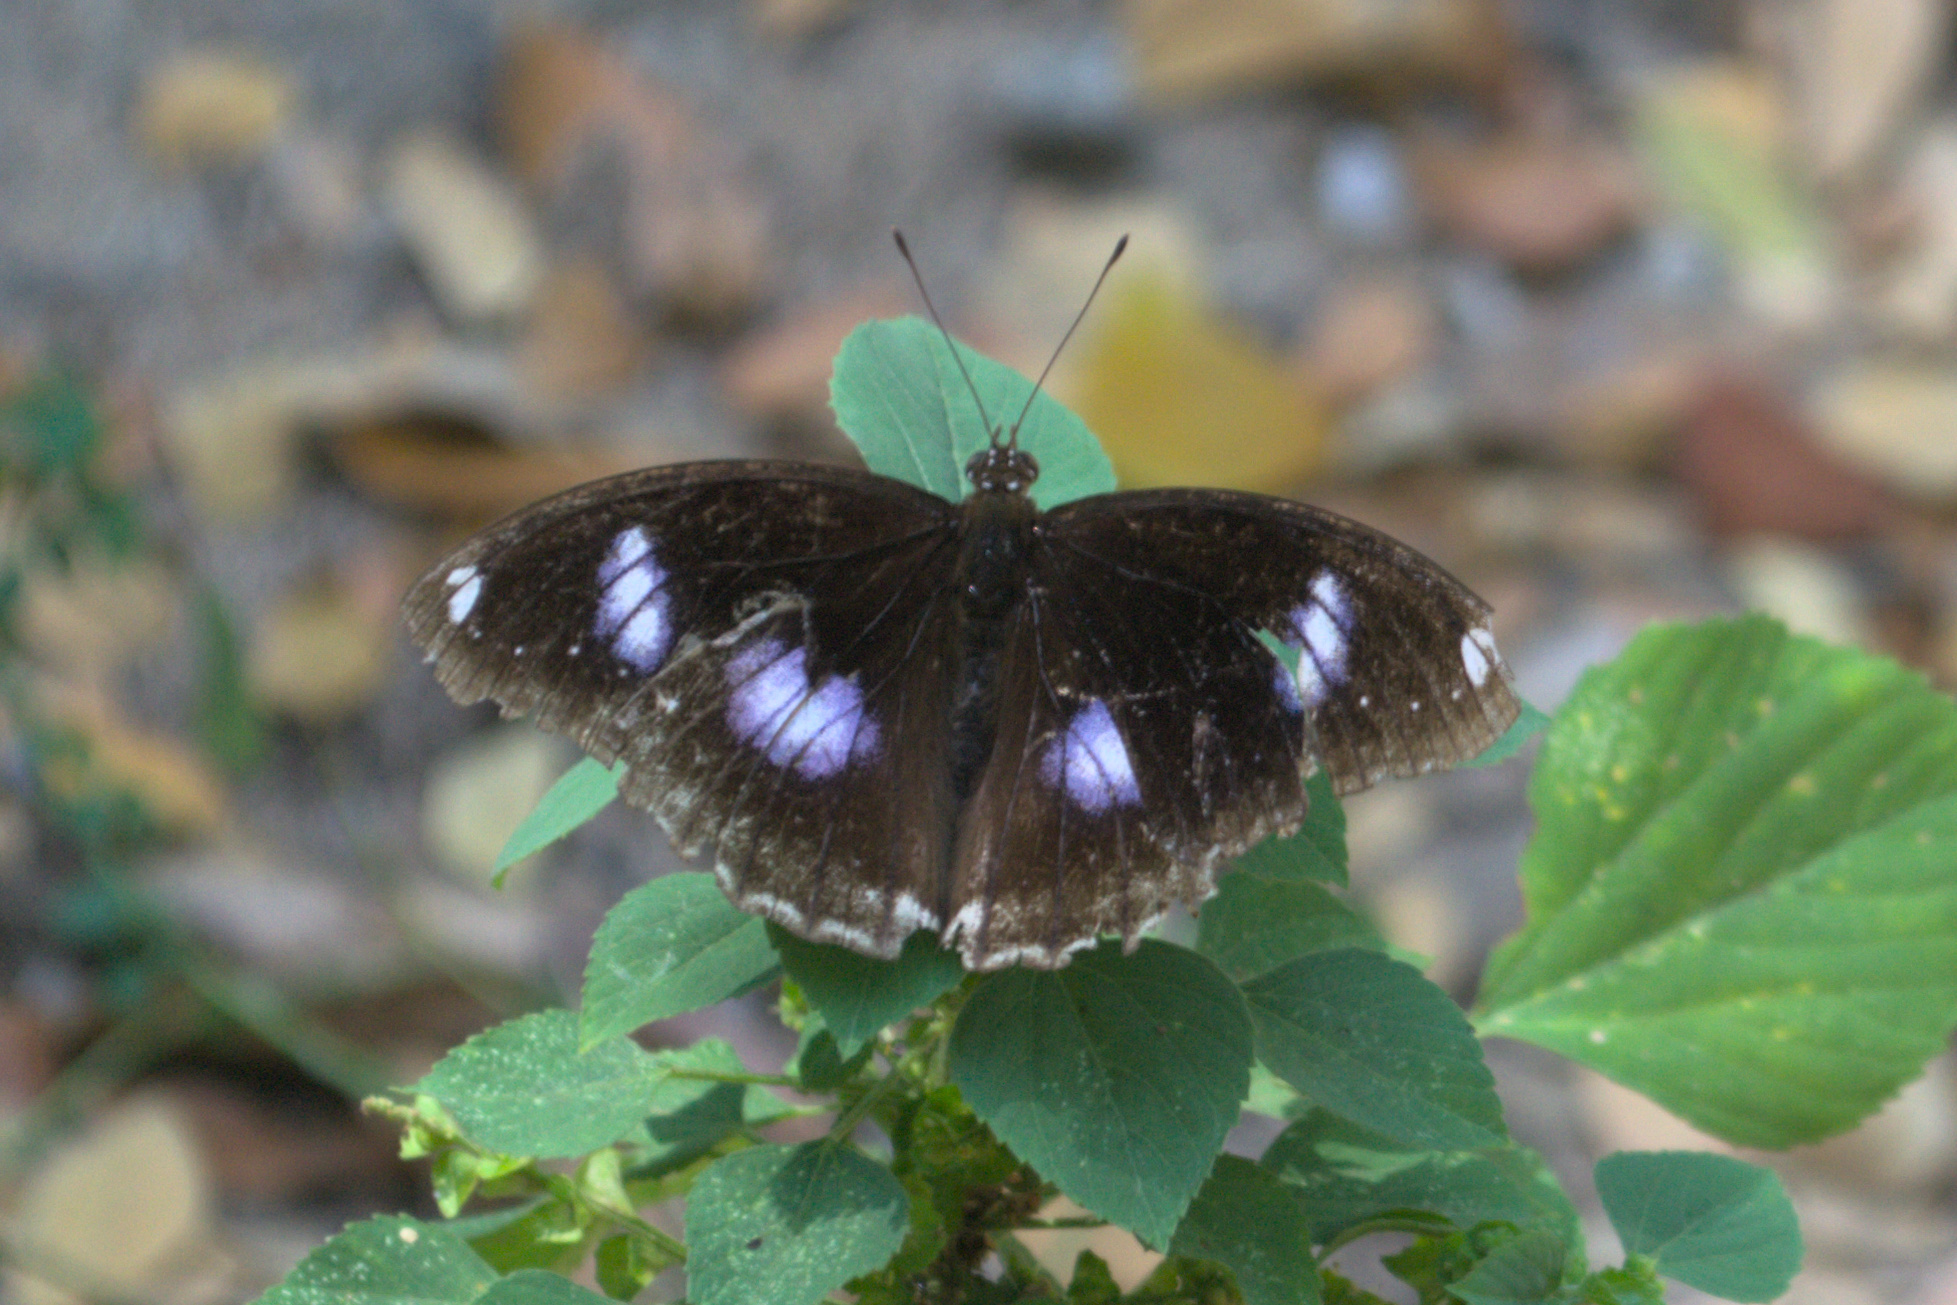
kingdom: Animalia
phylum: Arthropoda
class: Insecta
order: Lepidoptera
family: Nymphalidae
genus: Hypolimnas
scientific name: Hypolimnas bolina
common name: Great eggfly
